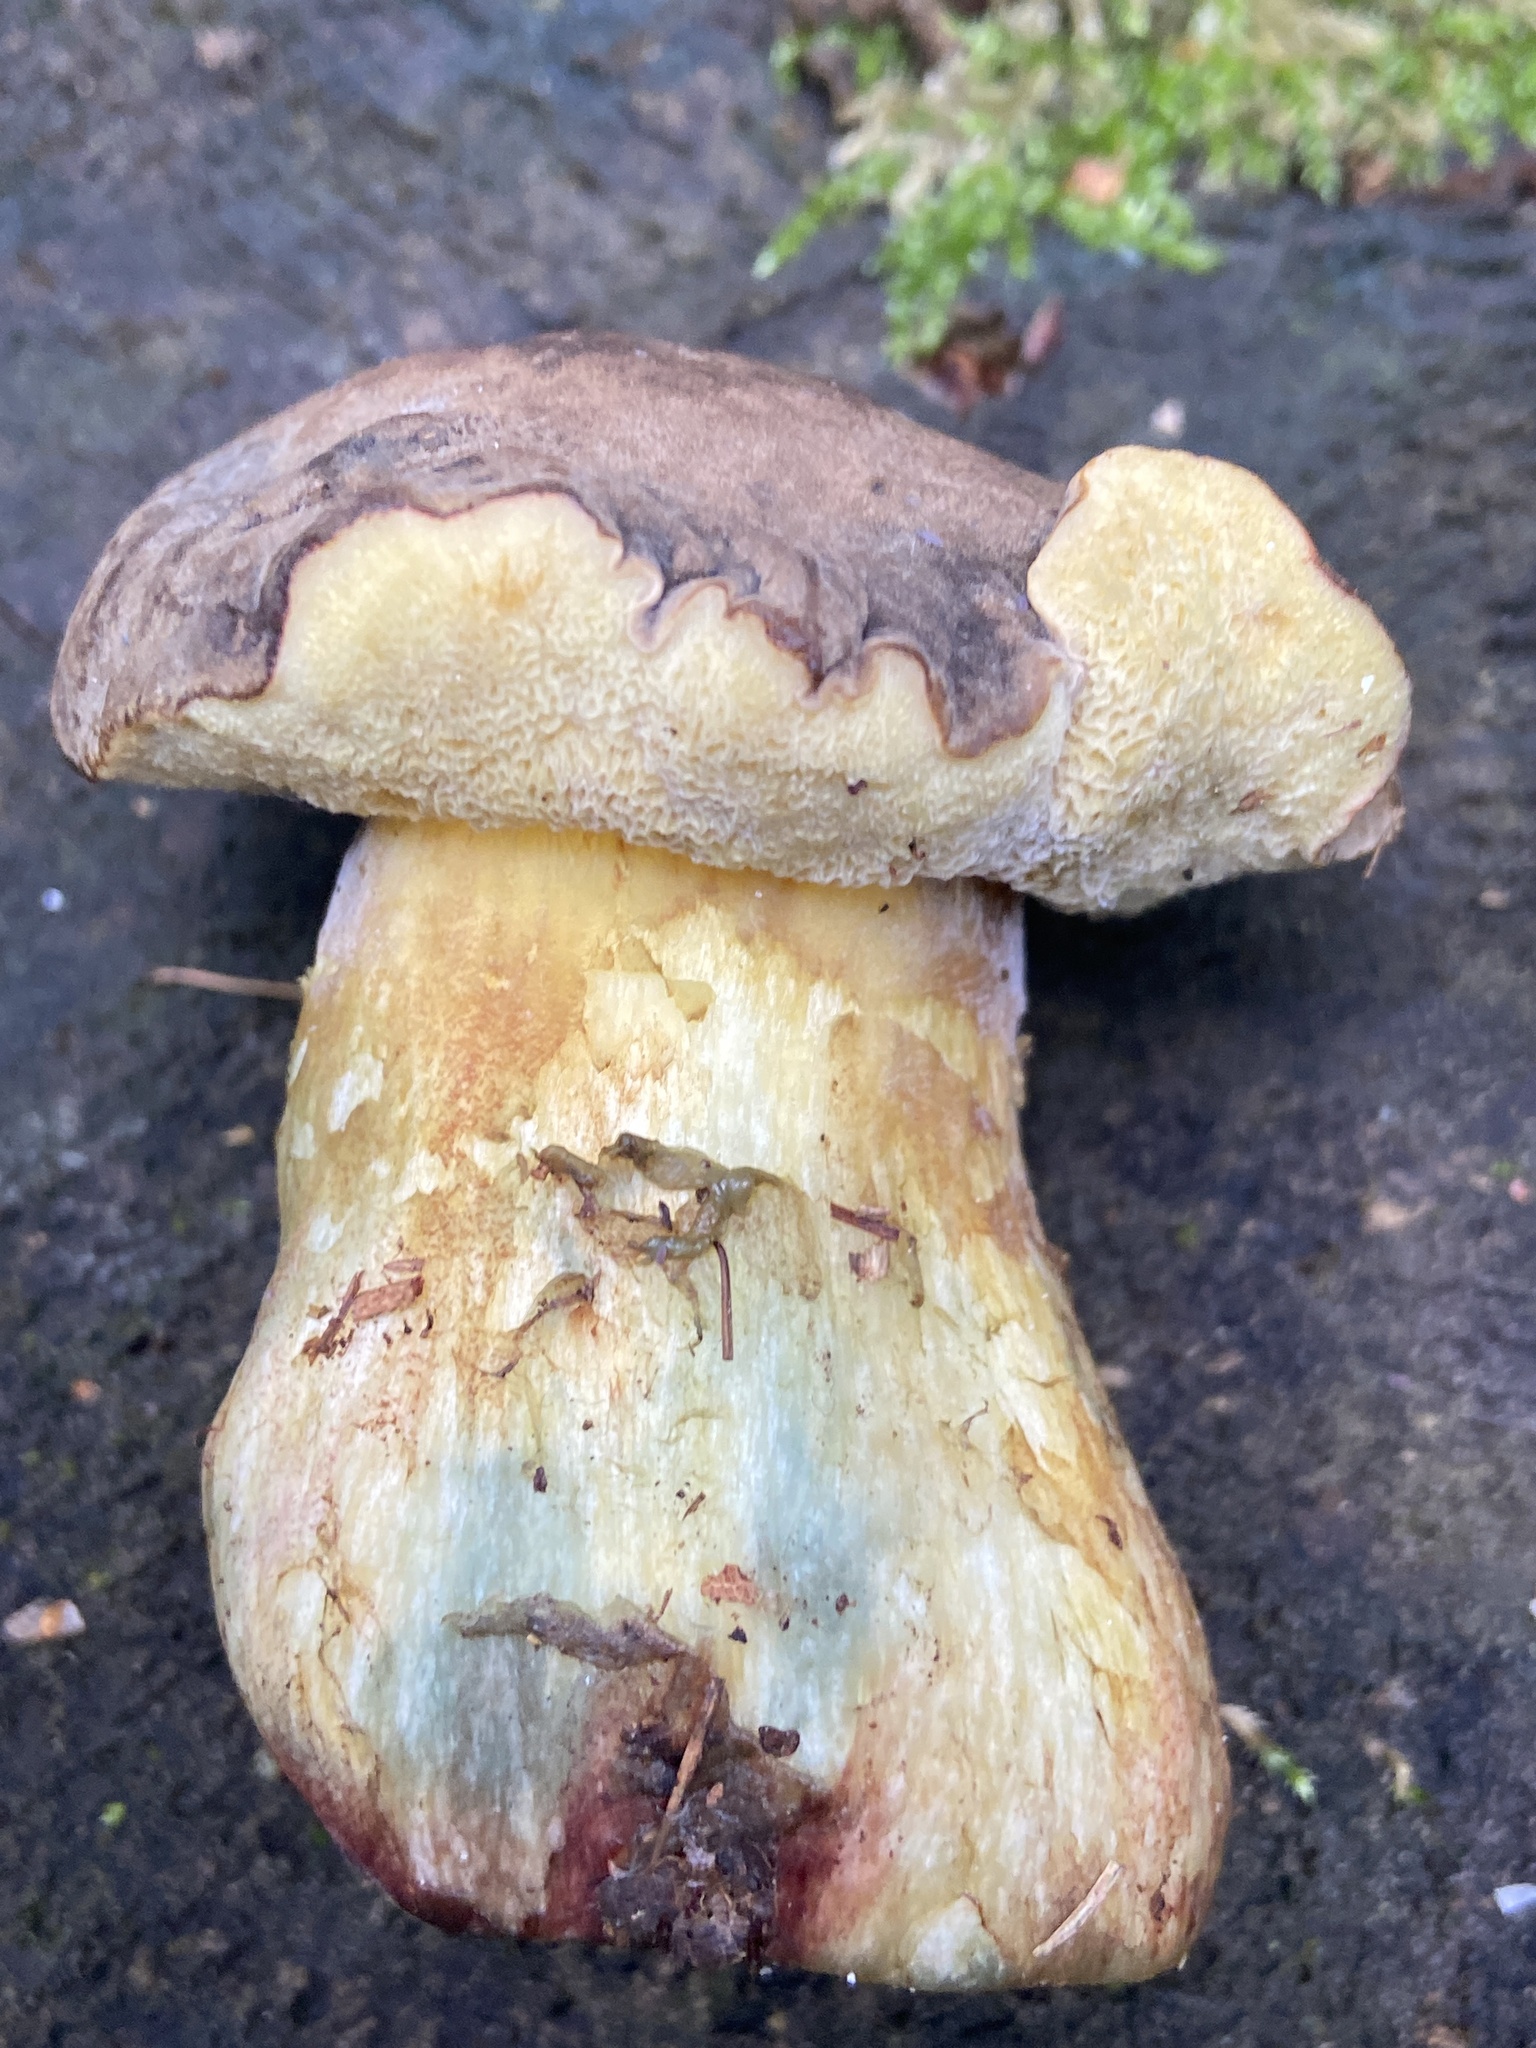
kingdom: Fungi
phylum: Basidiomycota
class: Agaricomycetes
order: Boletales
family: Boletaceae
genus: Xerocomellus
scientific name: Xerocomellus pruinatus
